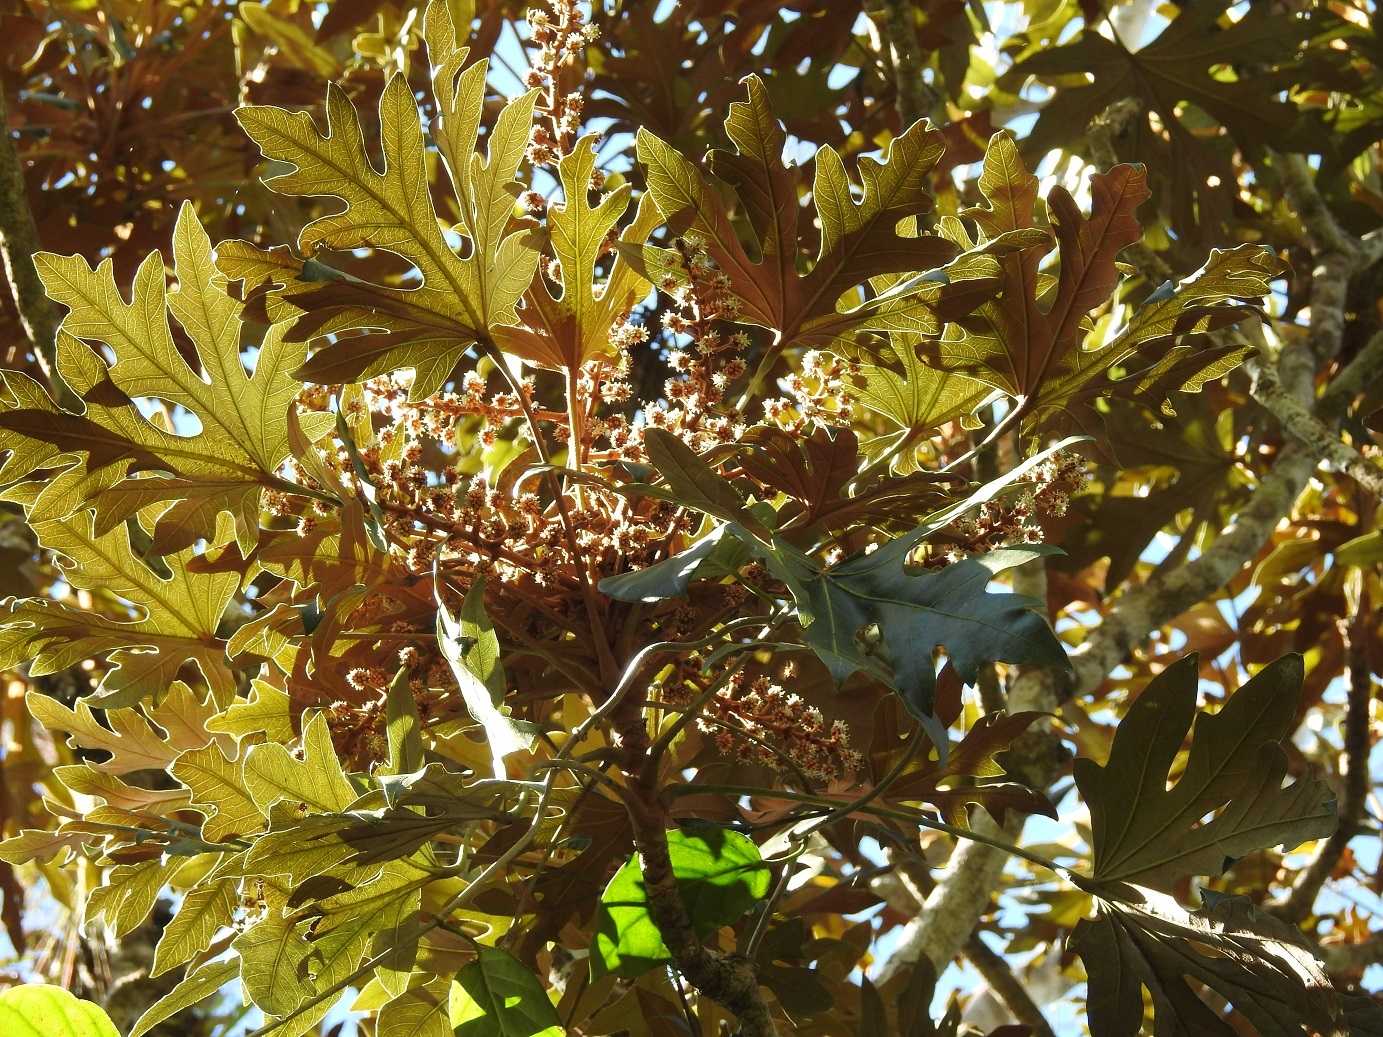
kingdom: Plantae
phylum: Tracheophyta
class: Magnoliopsida
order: Apiales
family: Araliaceae
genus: Oreopanax
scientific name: Oreopanax geminatus
